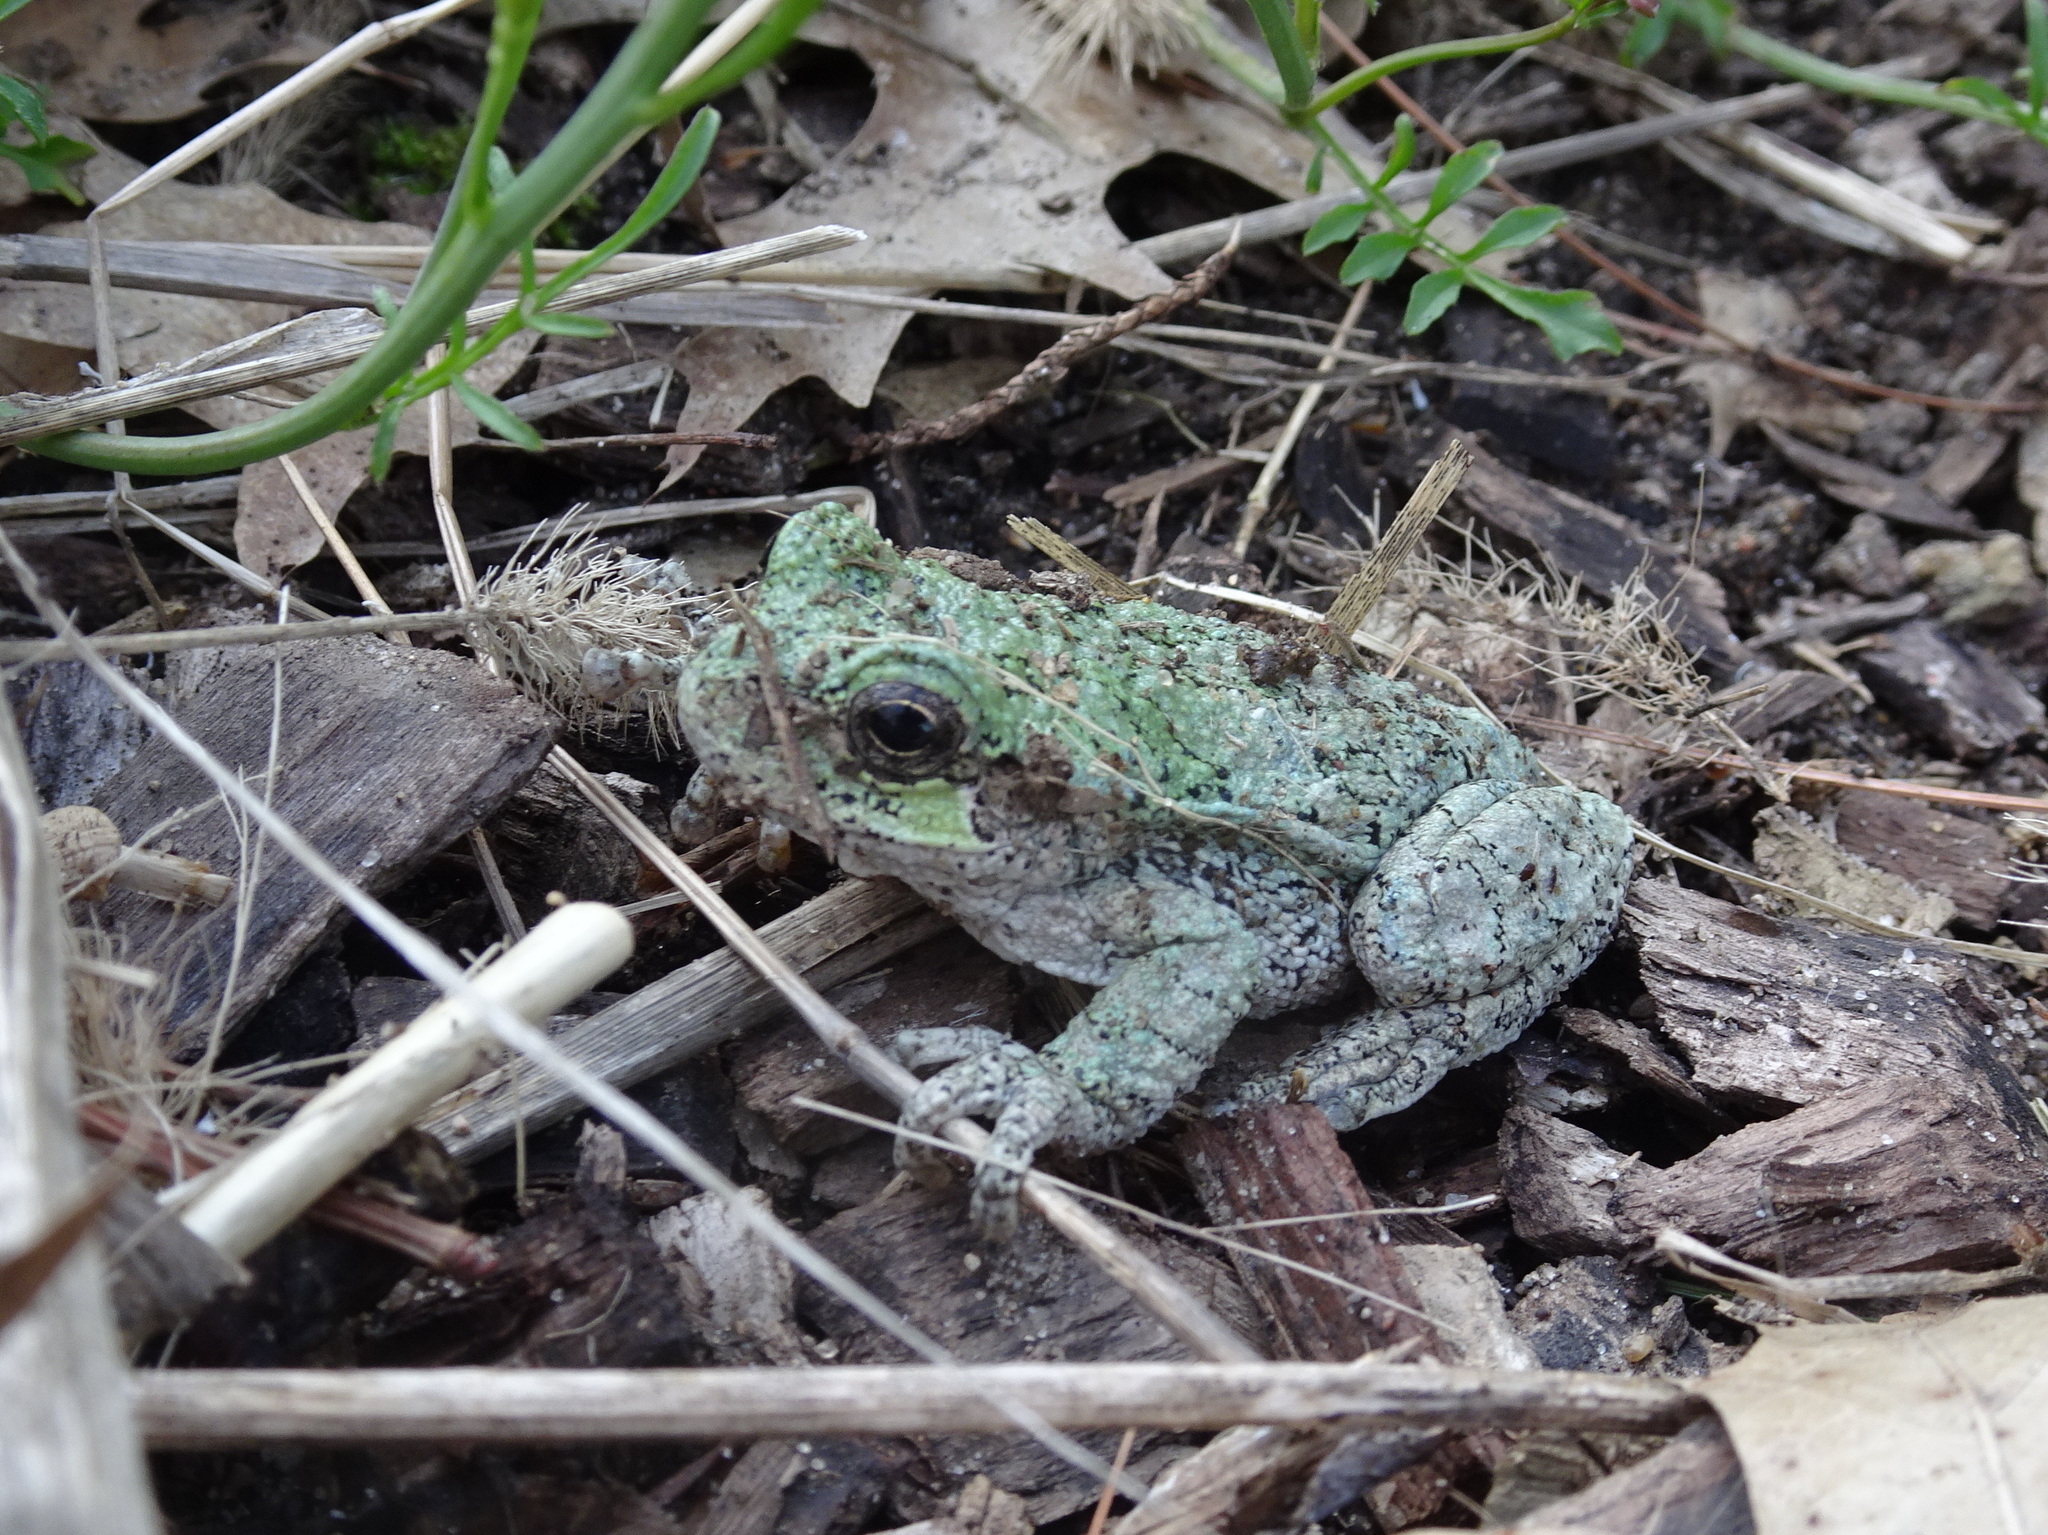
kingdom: Animalia
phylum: Chordata
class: Amphibia
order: Anura
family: Hylidae
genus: Hyla
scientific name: Hyla
